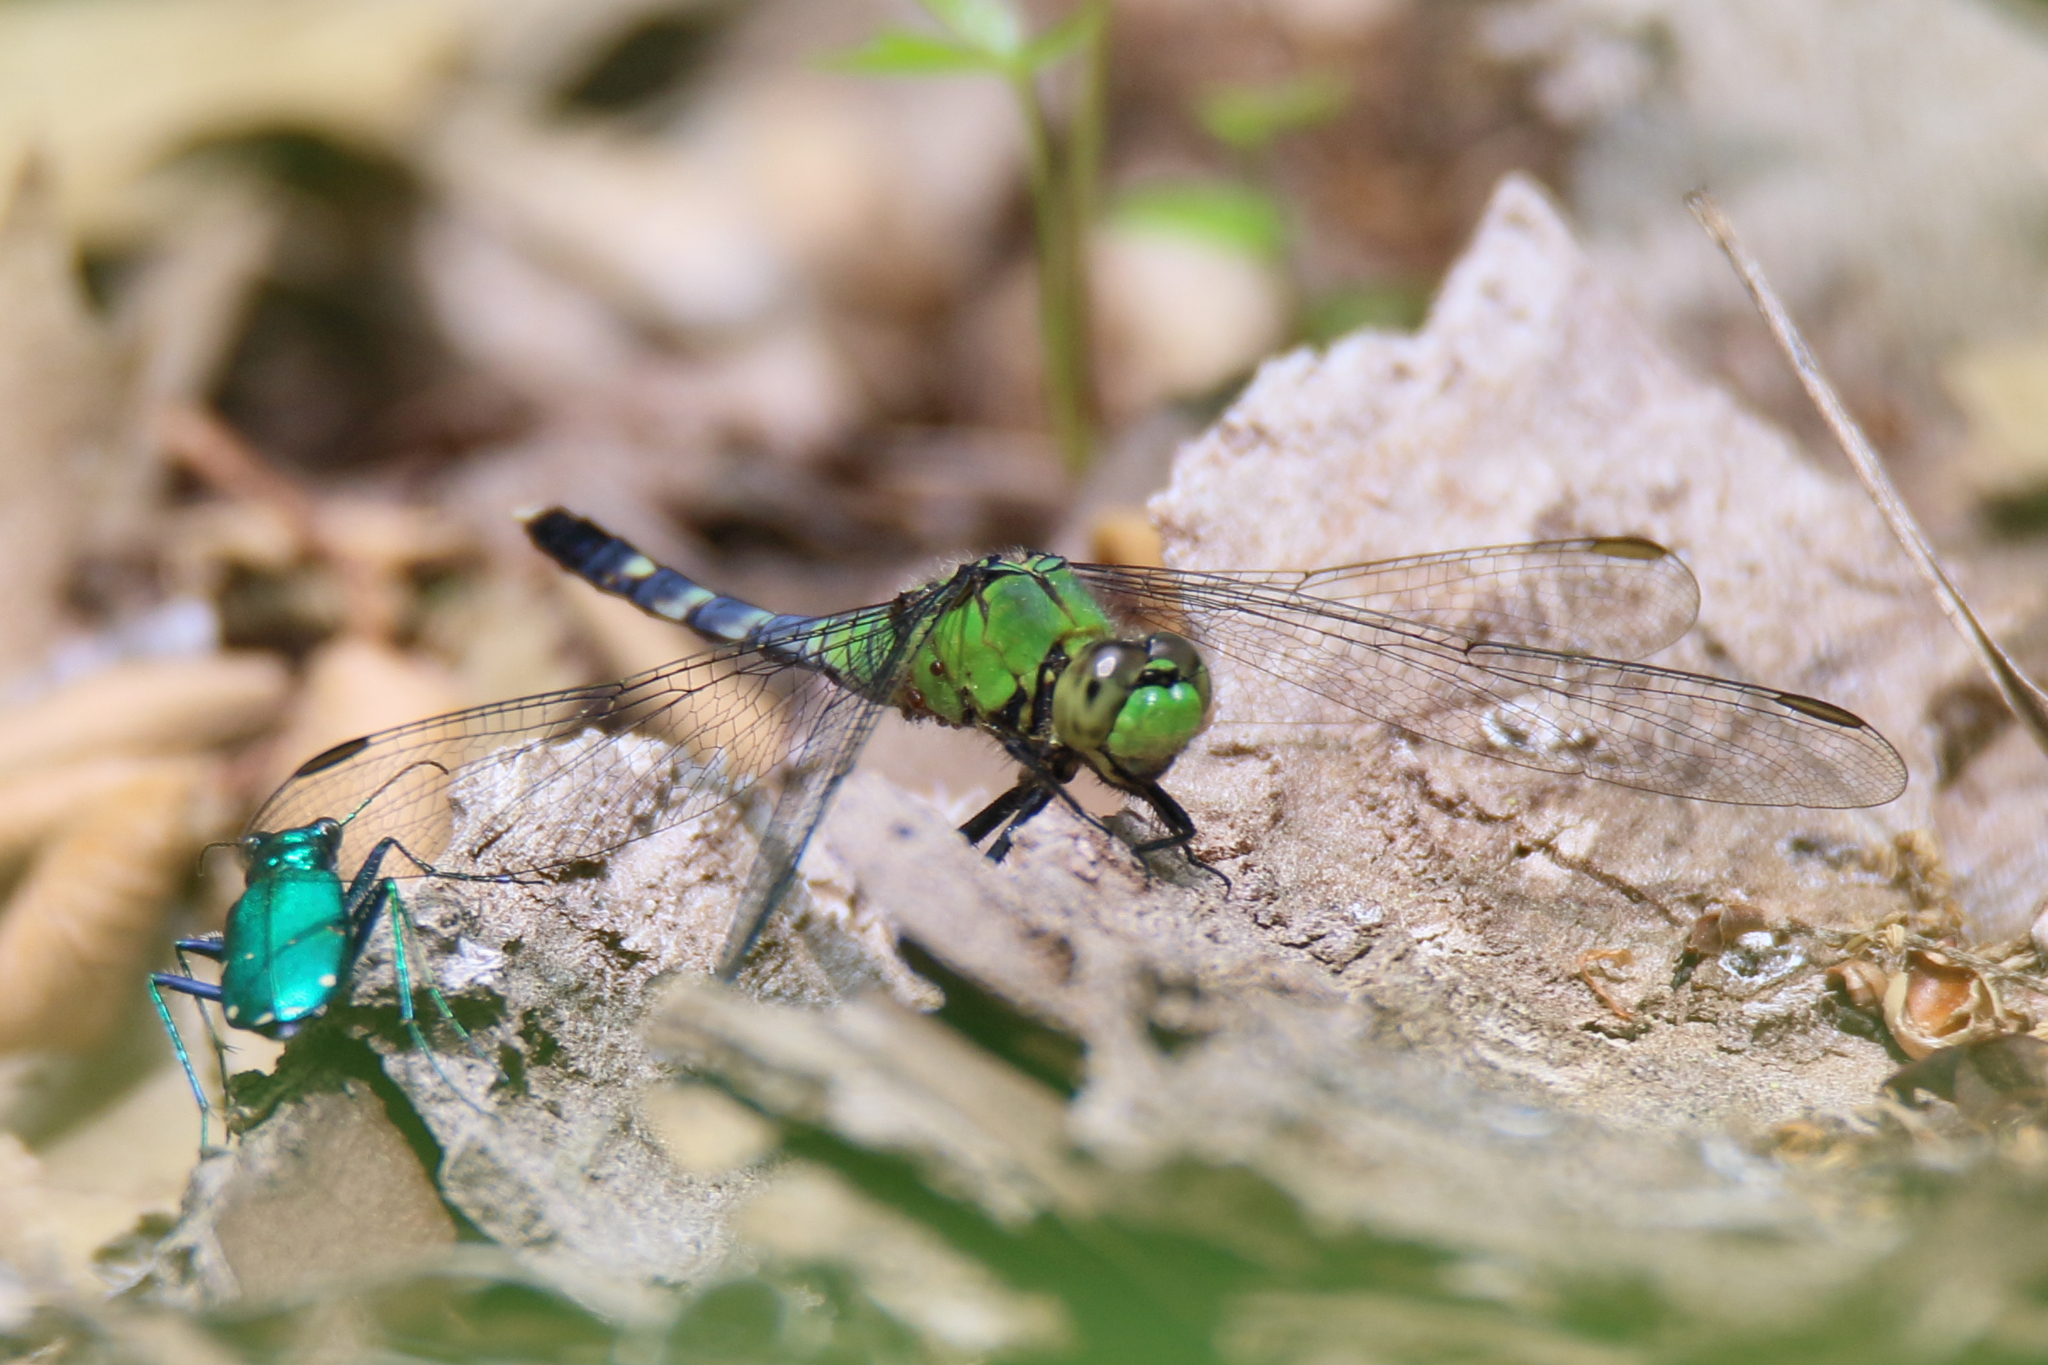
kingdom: Animalia
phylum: Arthropoda
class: Insecta
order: Odonata
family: Libellulidae
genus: Erythemis
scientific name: Erythemis simplicicollis
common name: Eastern pondhawk
